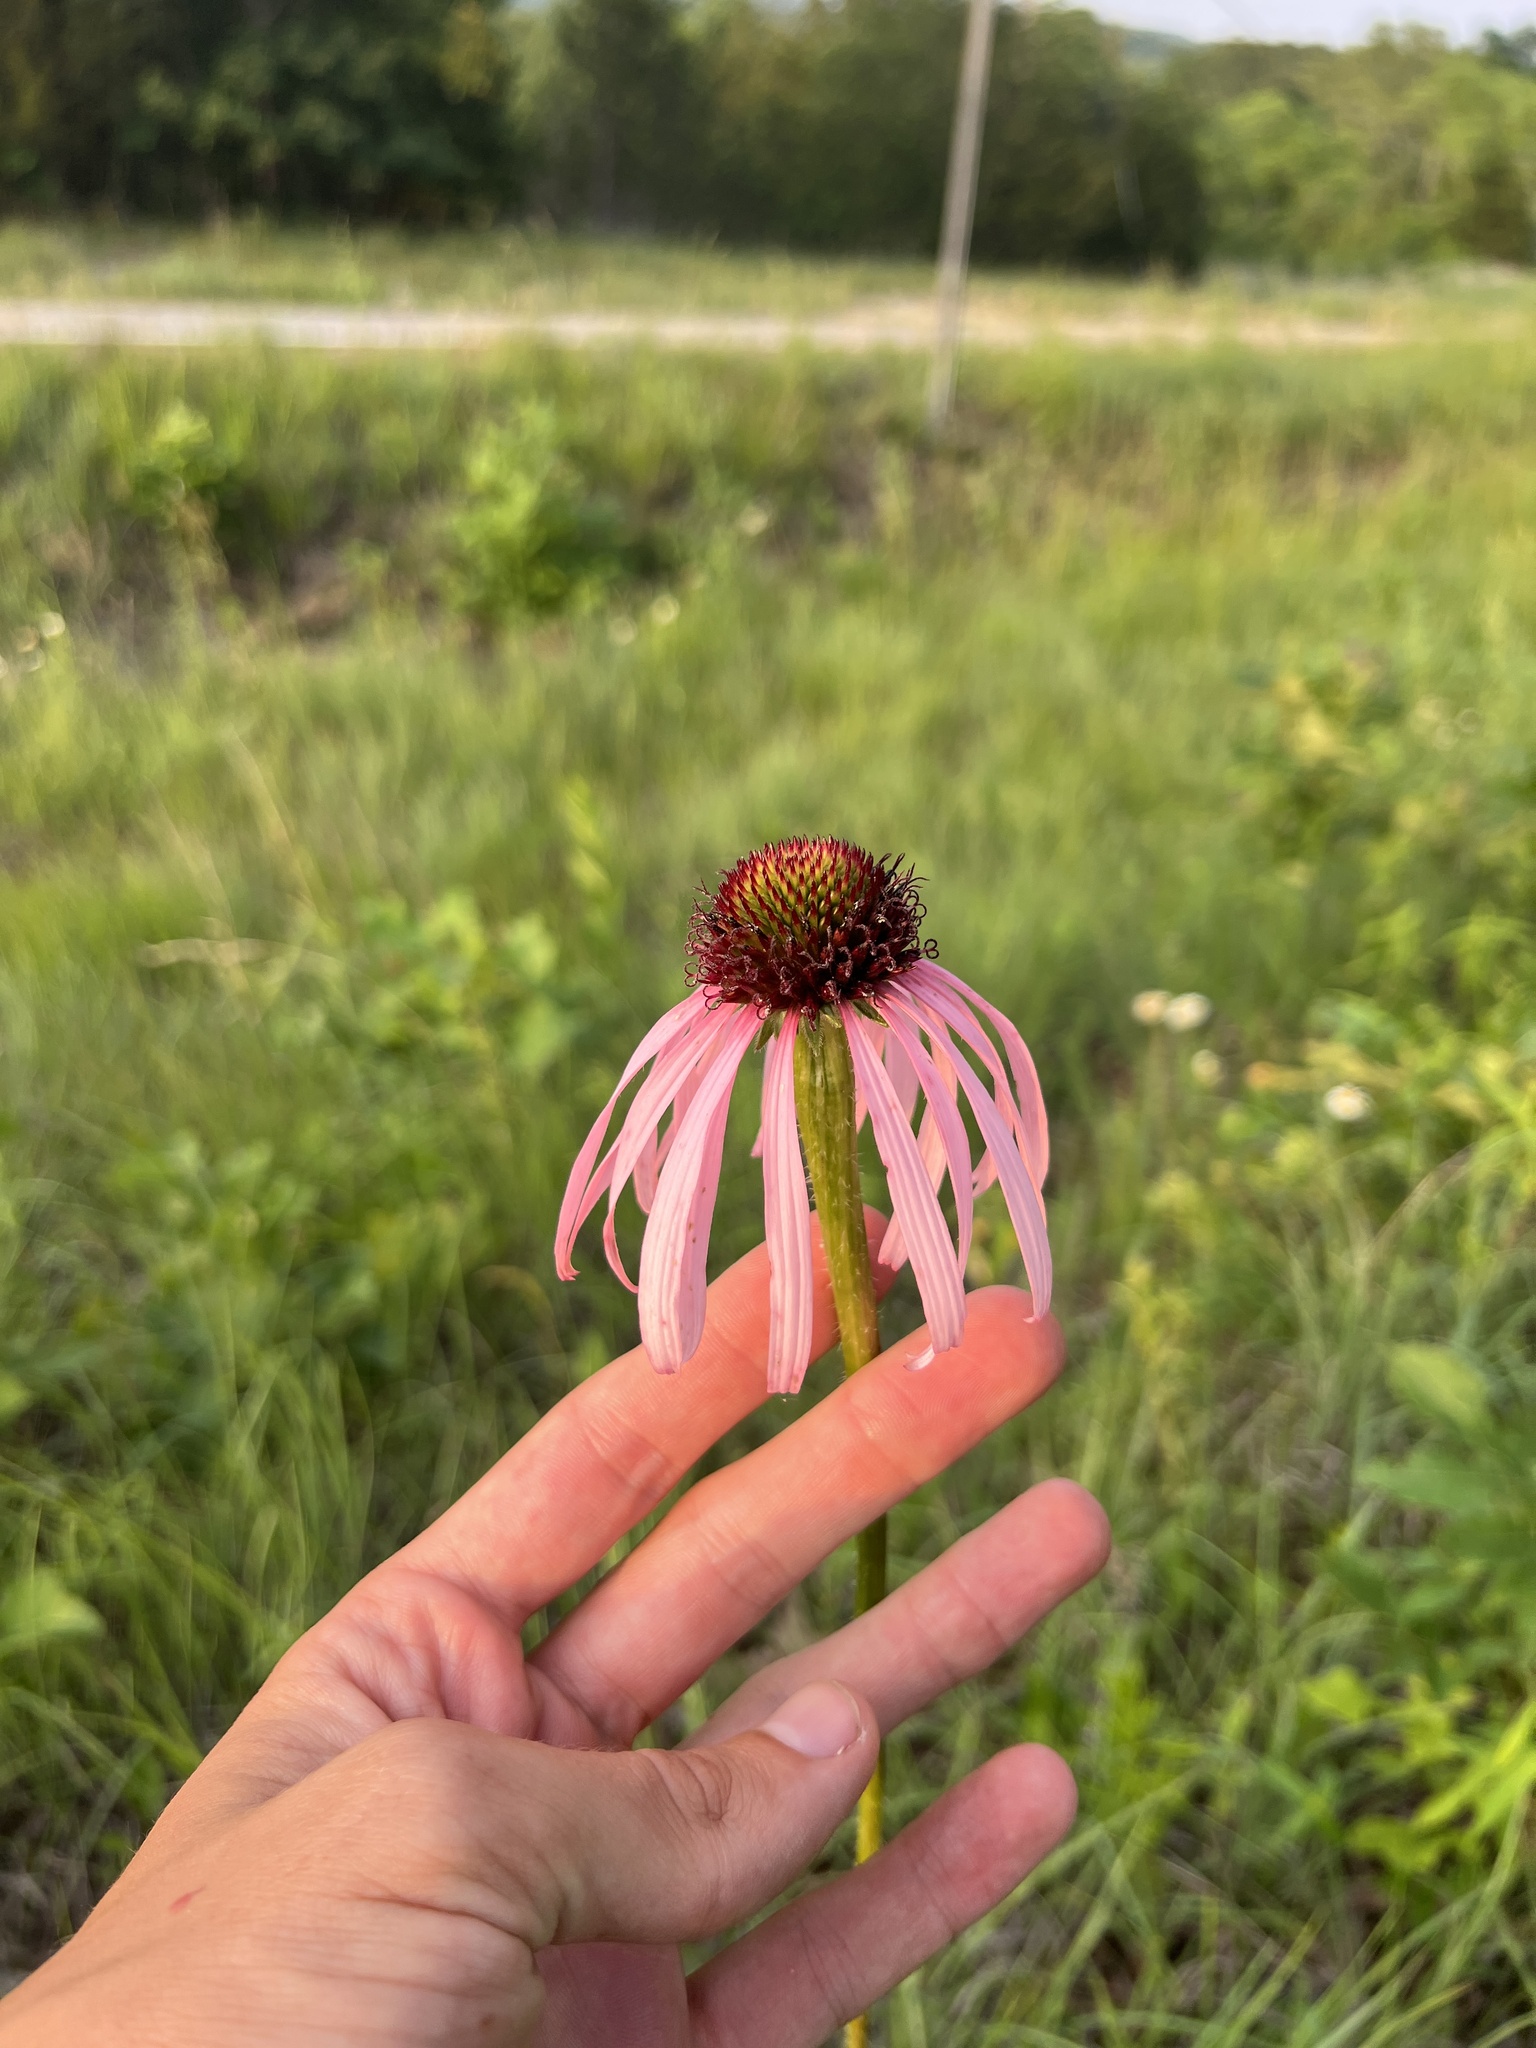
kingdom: Plantae
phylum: Tracheophyta
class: Magnoliopsida
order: Asterales
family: Asteraceae
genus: Echinacea
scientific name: Echinacea pallida
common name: Pale echinacea
